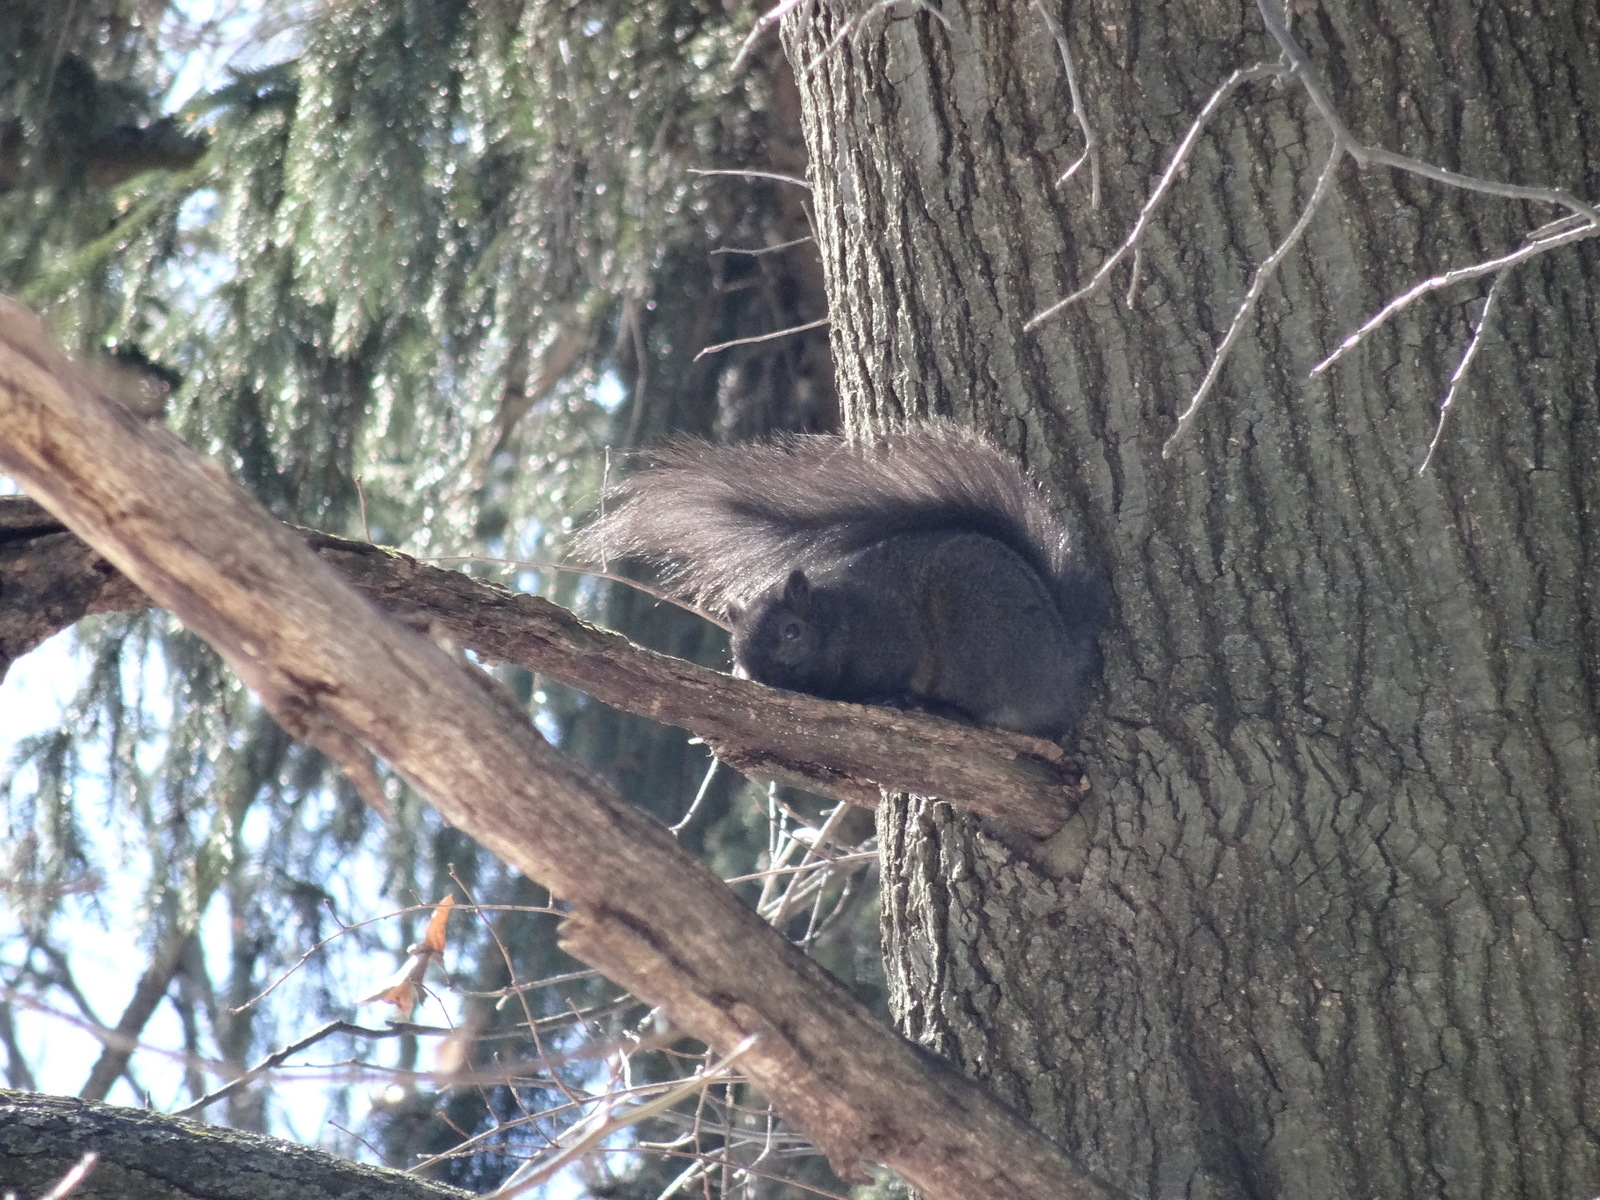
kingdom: Animalia
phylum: Chordata
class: Mammalia
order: Rodentia
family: Sciuridae
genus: Sciurus
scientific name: Sciurus carolinensis
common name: Eastern gray squirrel
